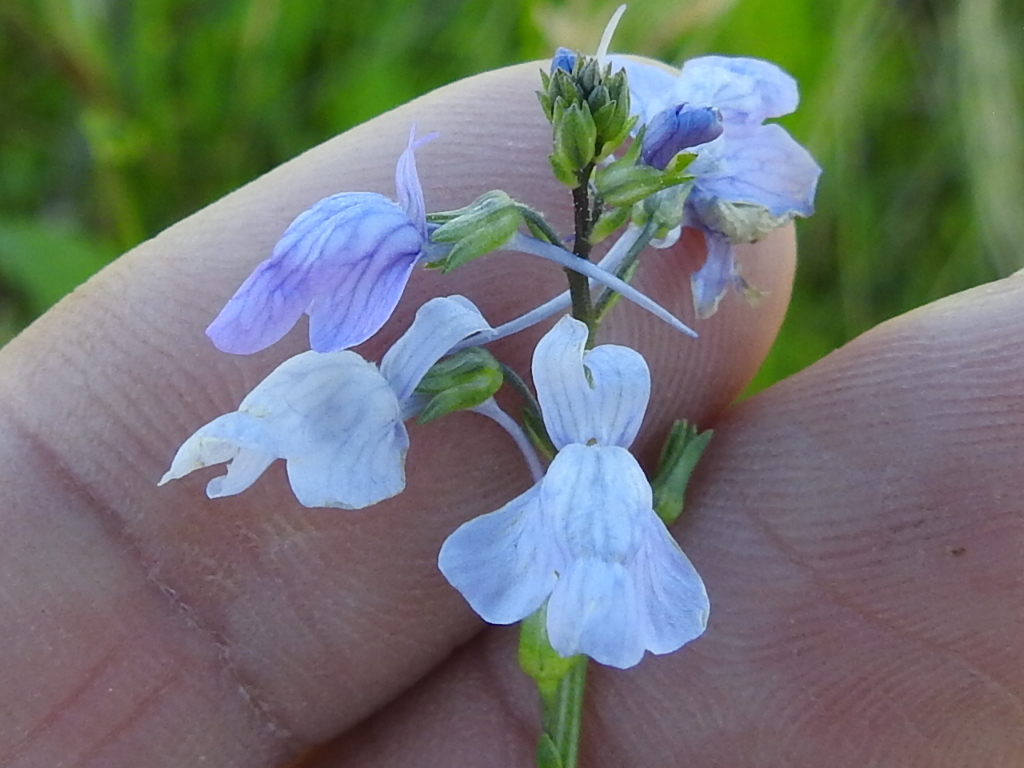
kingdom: Plantae
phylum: Tracheophyta
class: Magnoliopsida
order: Lamiales
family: Plantaginaceae
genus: Nuttallanthus
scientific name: Nuttallanthus texanus
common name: Texas toadflax
